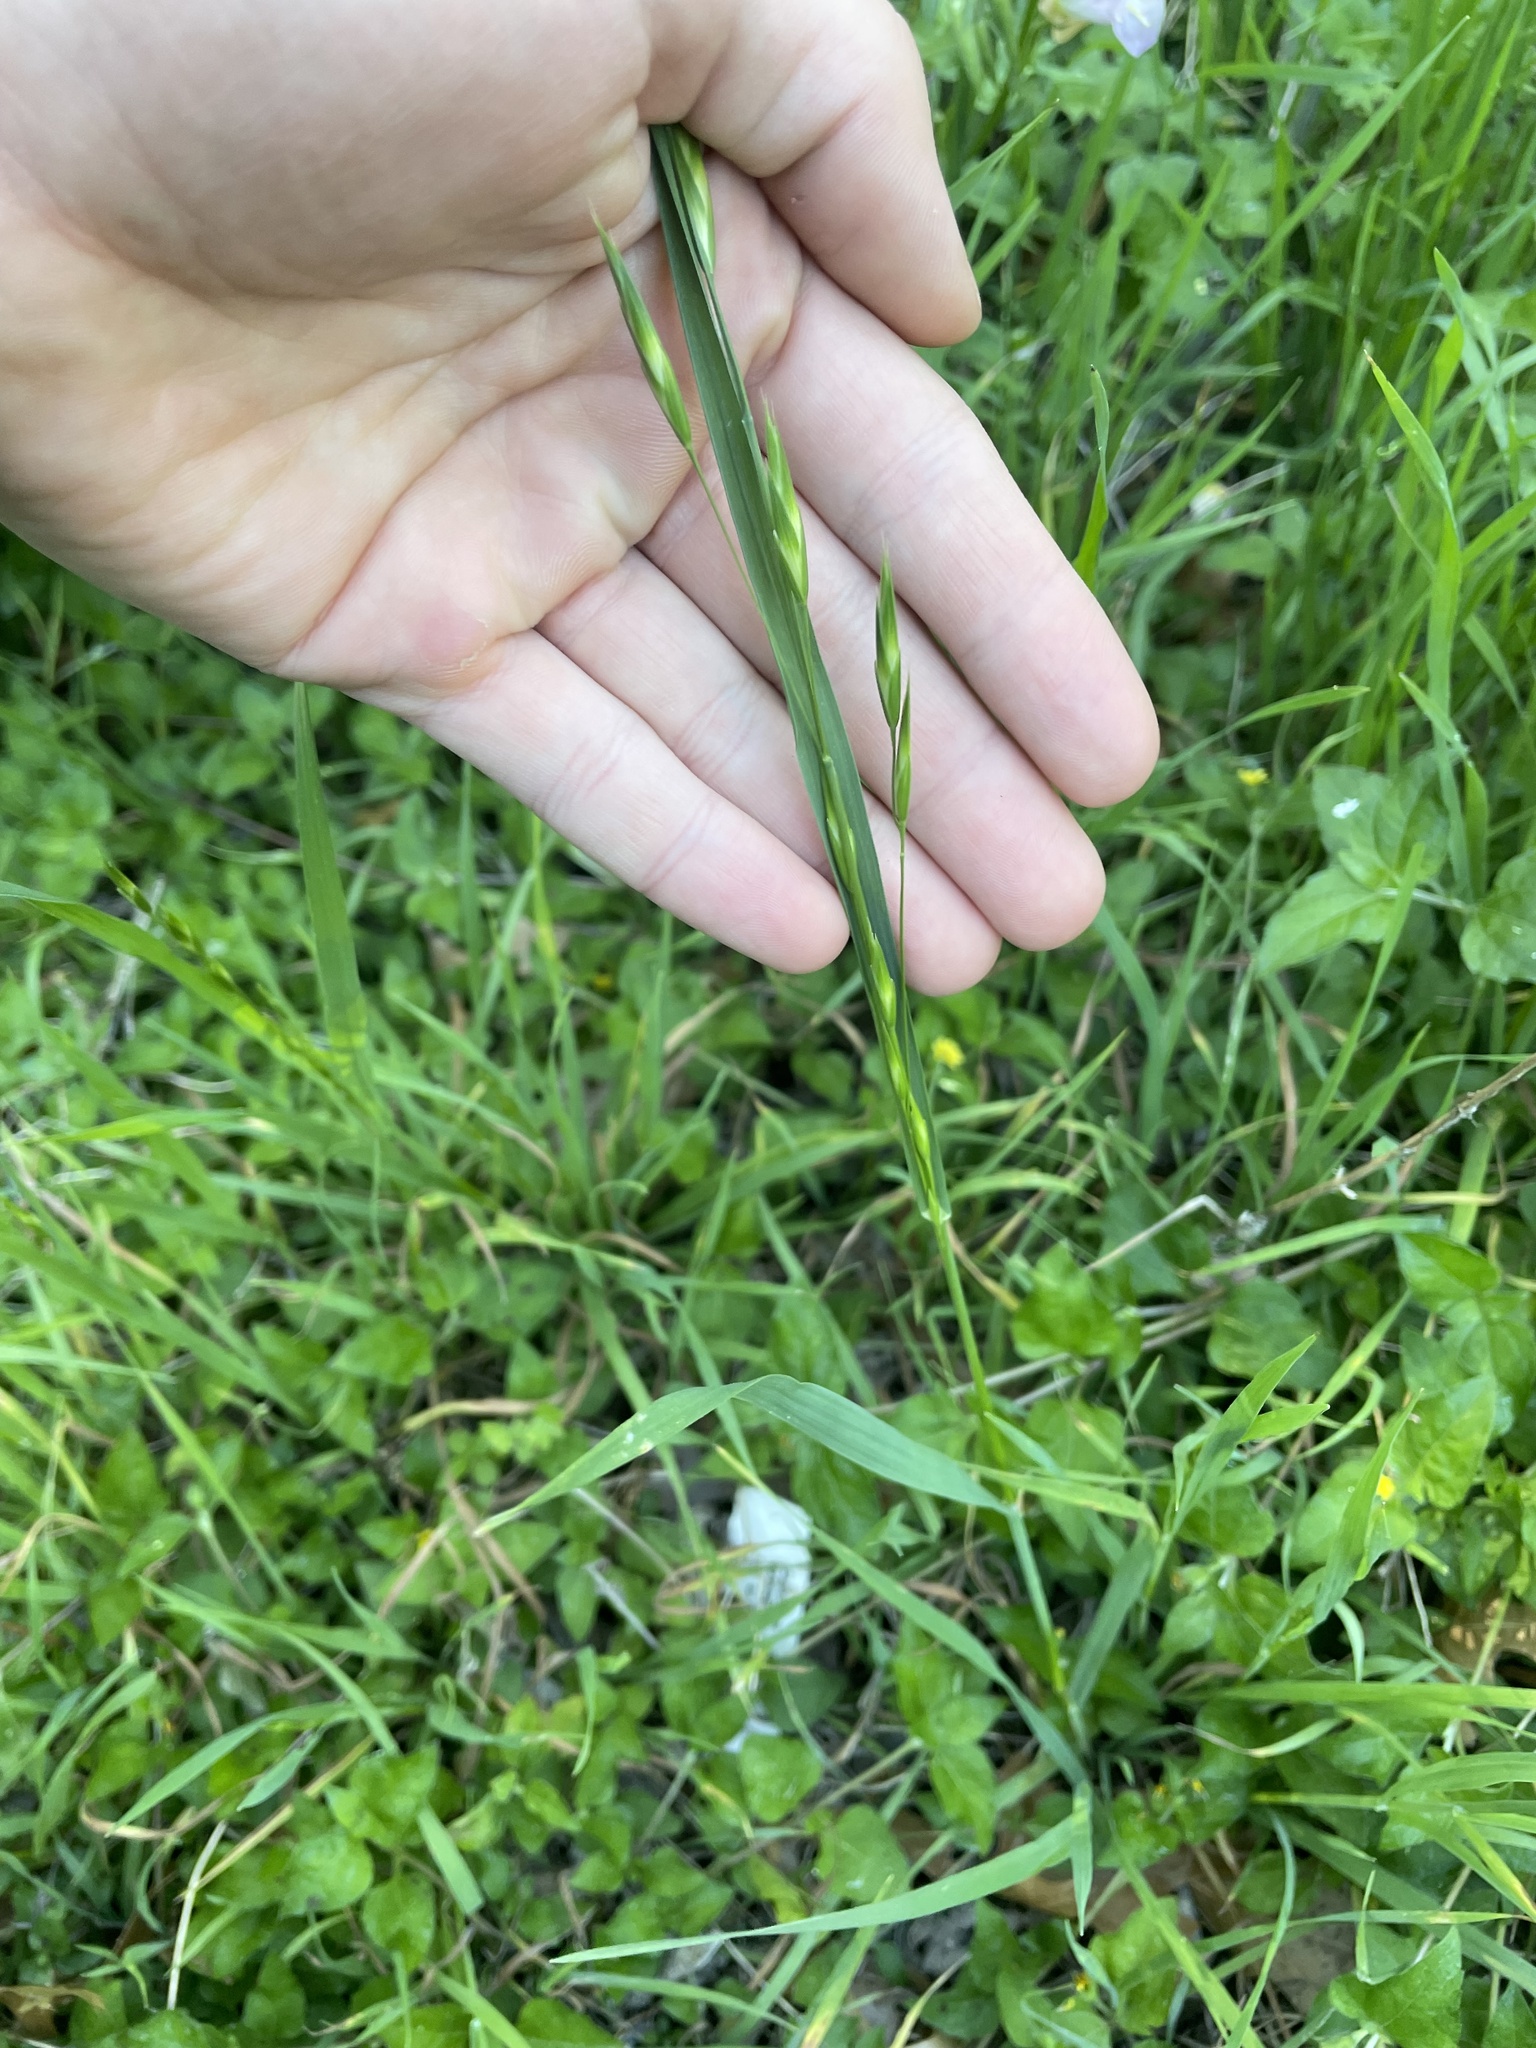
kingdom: Plantae
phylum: Tracheophyta
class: Liliopsida
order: Poales
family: Poaceae
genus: Bromus
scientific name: Bromus catharticus
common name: Rescuegrass
